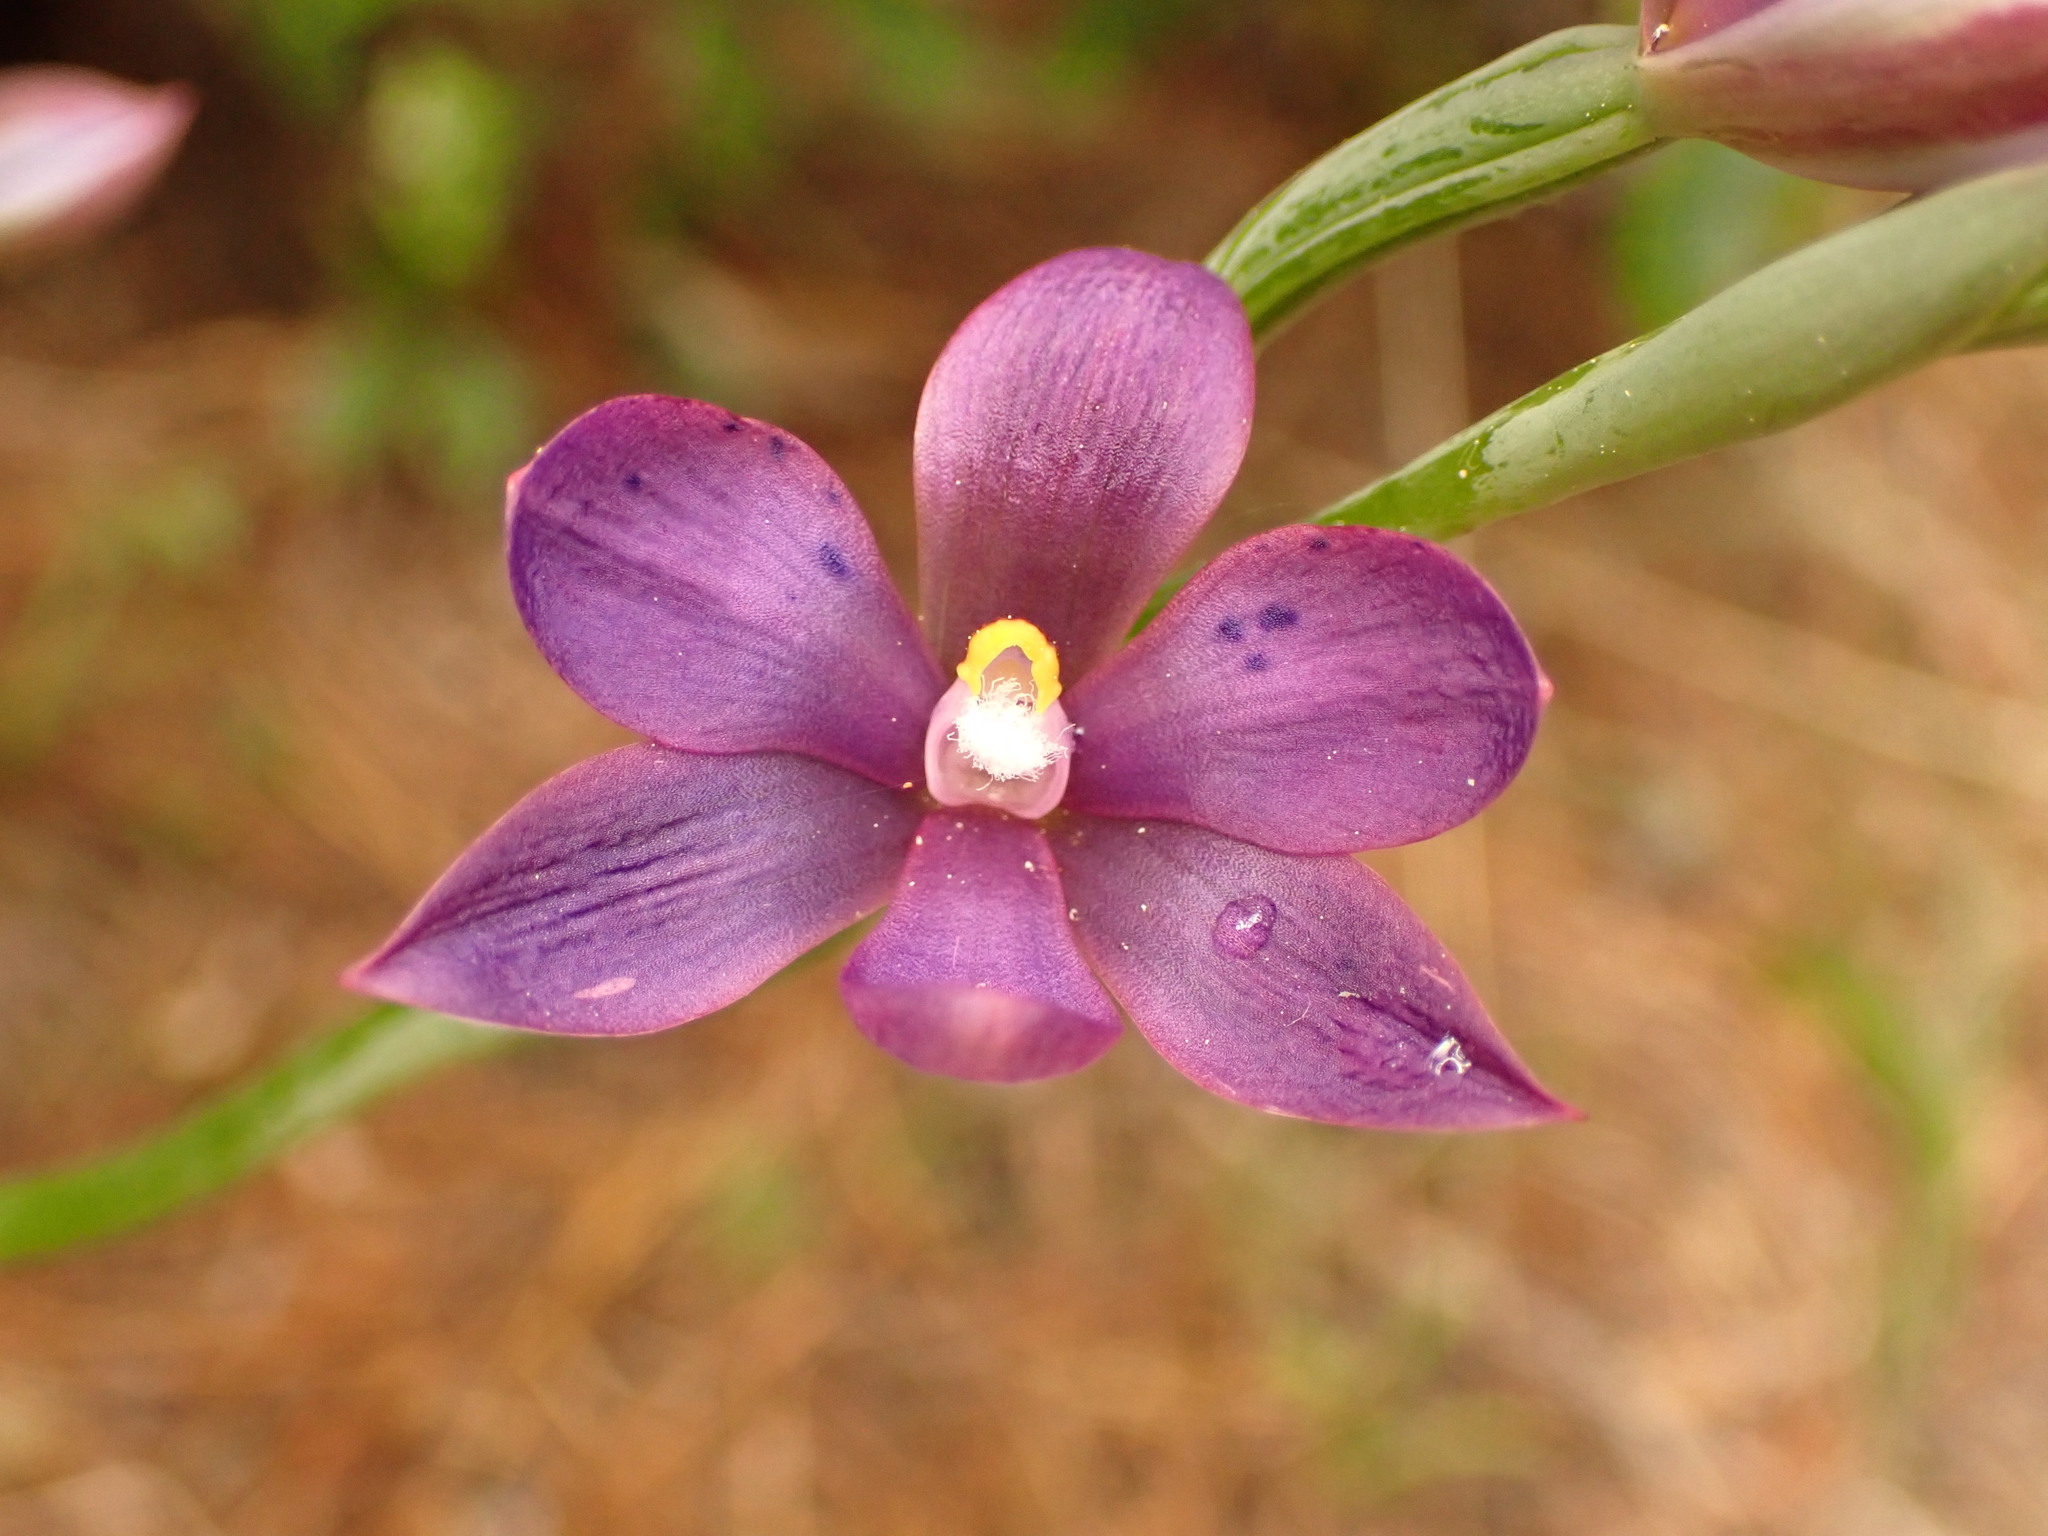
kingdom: Plantae
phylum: Tracheophyta
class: Liliopsida
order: Asparagales
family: Orchidaceae
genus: Thelymitra
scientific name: Thelymitra nervosa
